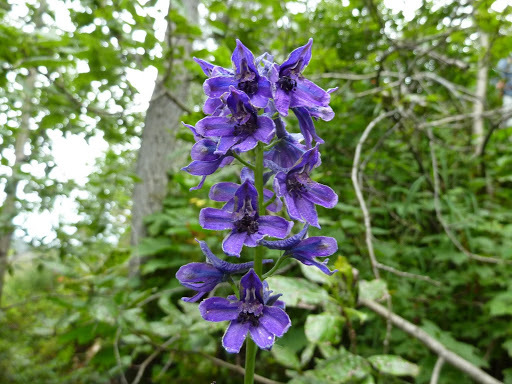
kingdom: Plantae
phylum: Tracheophyta
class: Magnoliopsida
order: Ranunculales
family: Ranunculaceae
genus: Delphinium
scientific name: Delphinium glaucum
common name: Brown's larkspur
